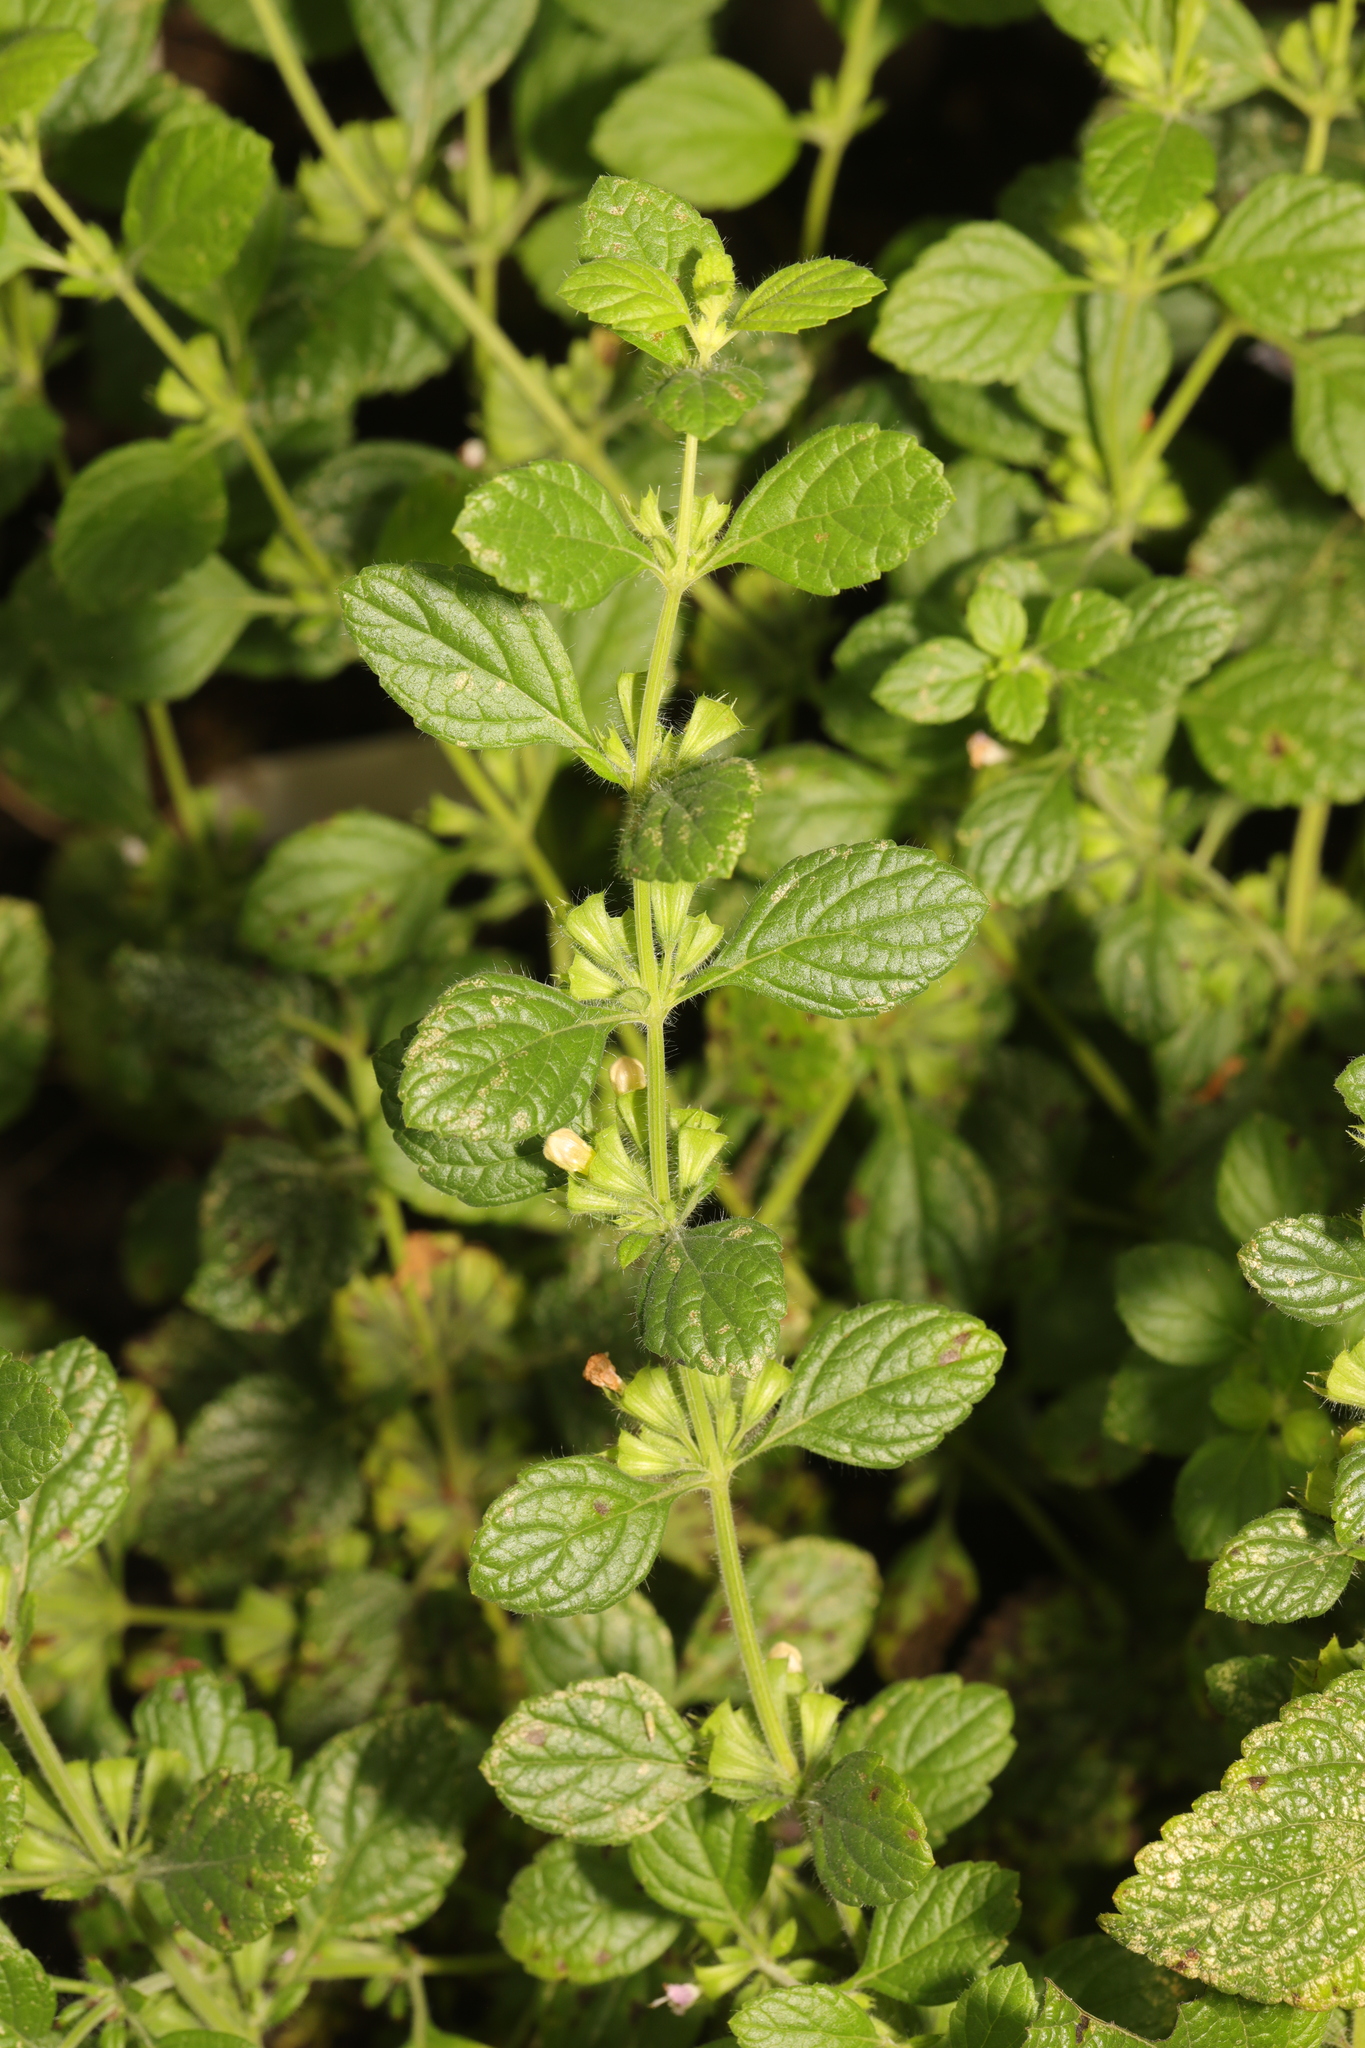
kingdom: Plantae
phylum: Tracheophyta
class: Magnoliopsida
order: Lamiales
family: Lamiaceae
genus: Melissa
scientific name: Melissa officinalis
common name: Balm
